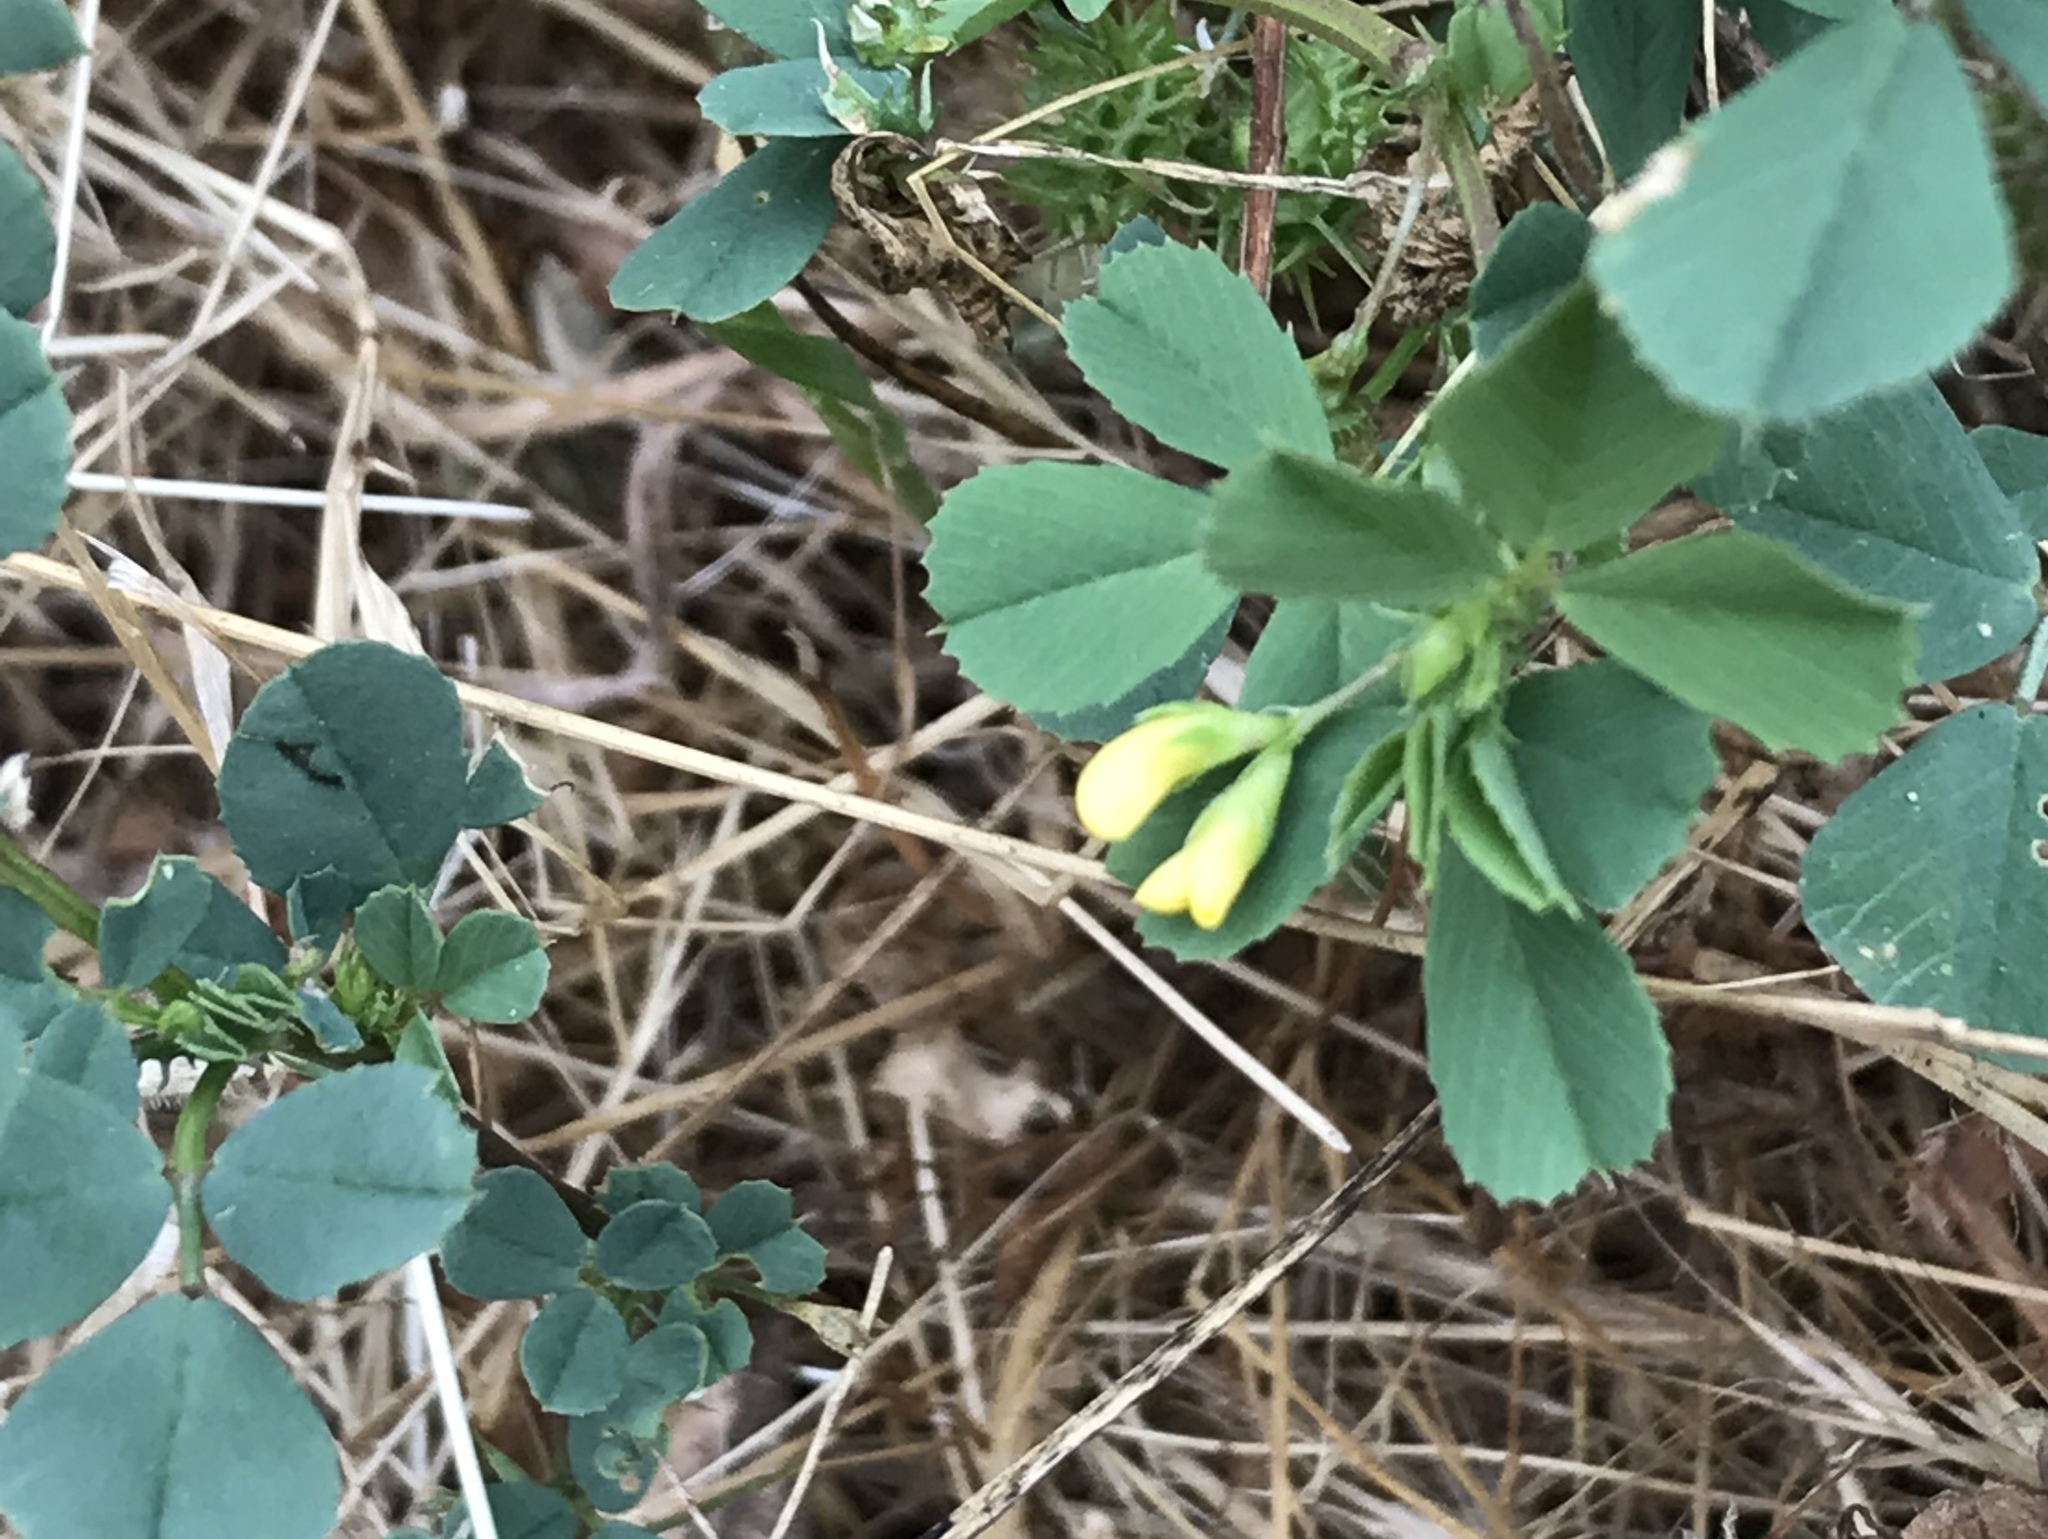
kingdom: Plantae
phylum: Tracheophyta
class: Magnoliopsida
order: Fabales
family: Fabaceae
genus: Medicago
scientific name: Medicago polymorpha
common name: Burclover
